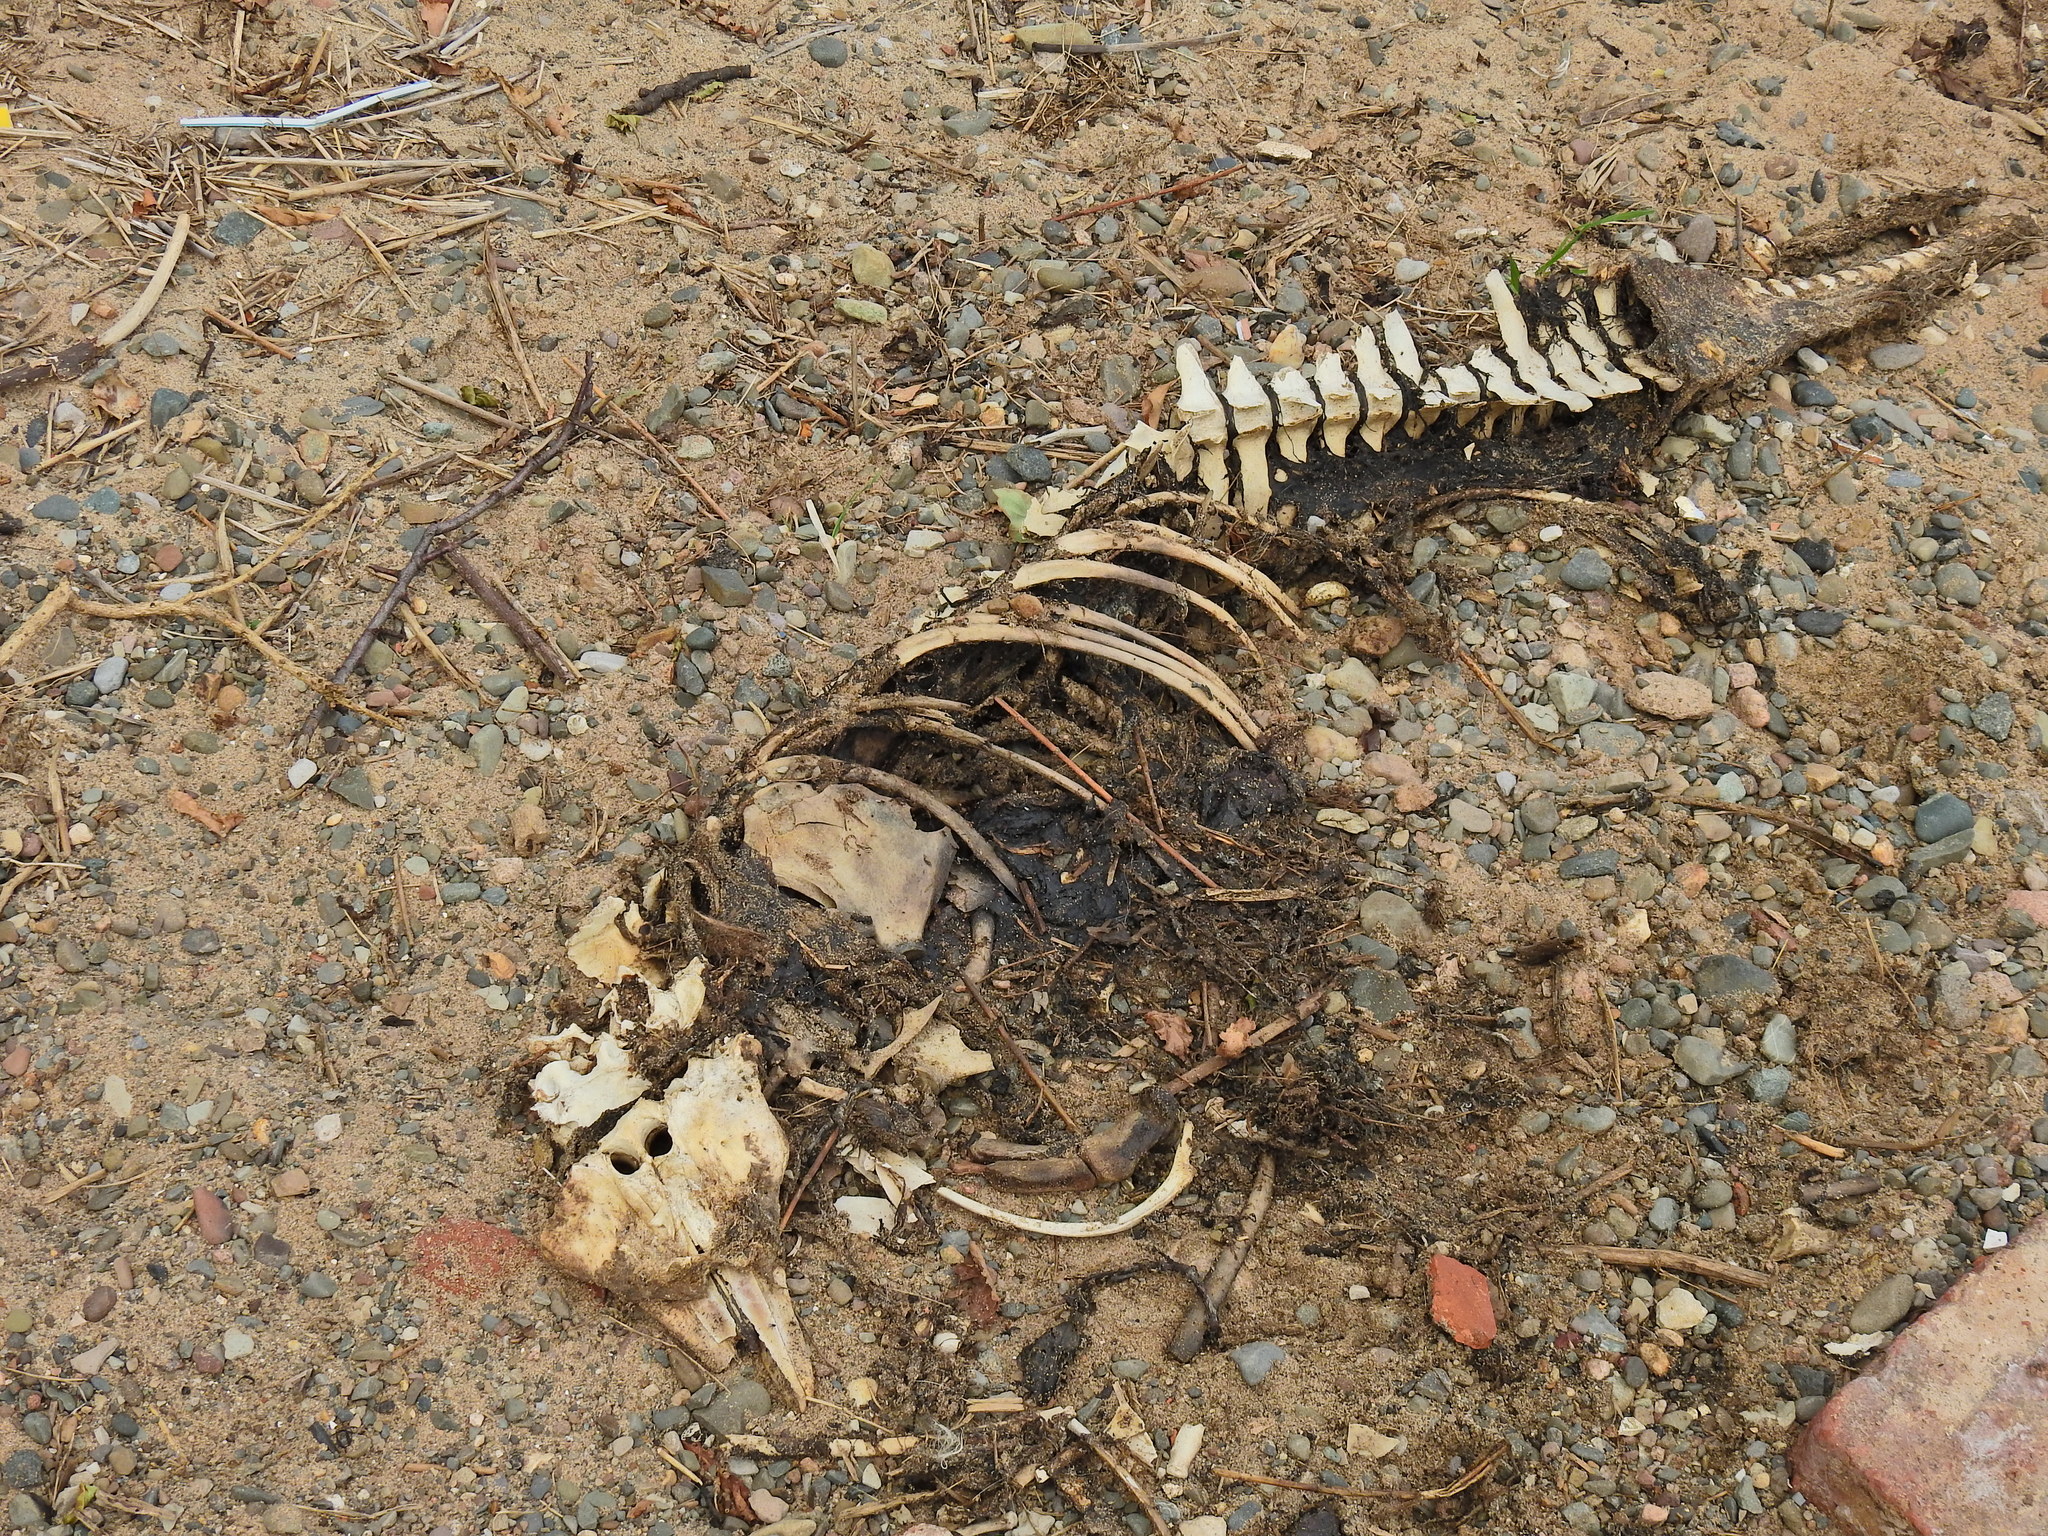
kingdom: Animalia
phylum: Chordata
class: Mammalia
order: Cetacea
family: Phocoenidae
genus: Phocoena
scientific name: Phocoena phocoena
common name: Harbor porpoise
